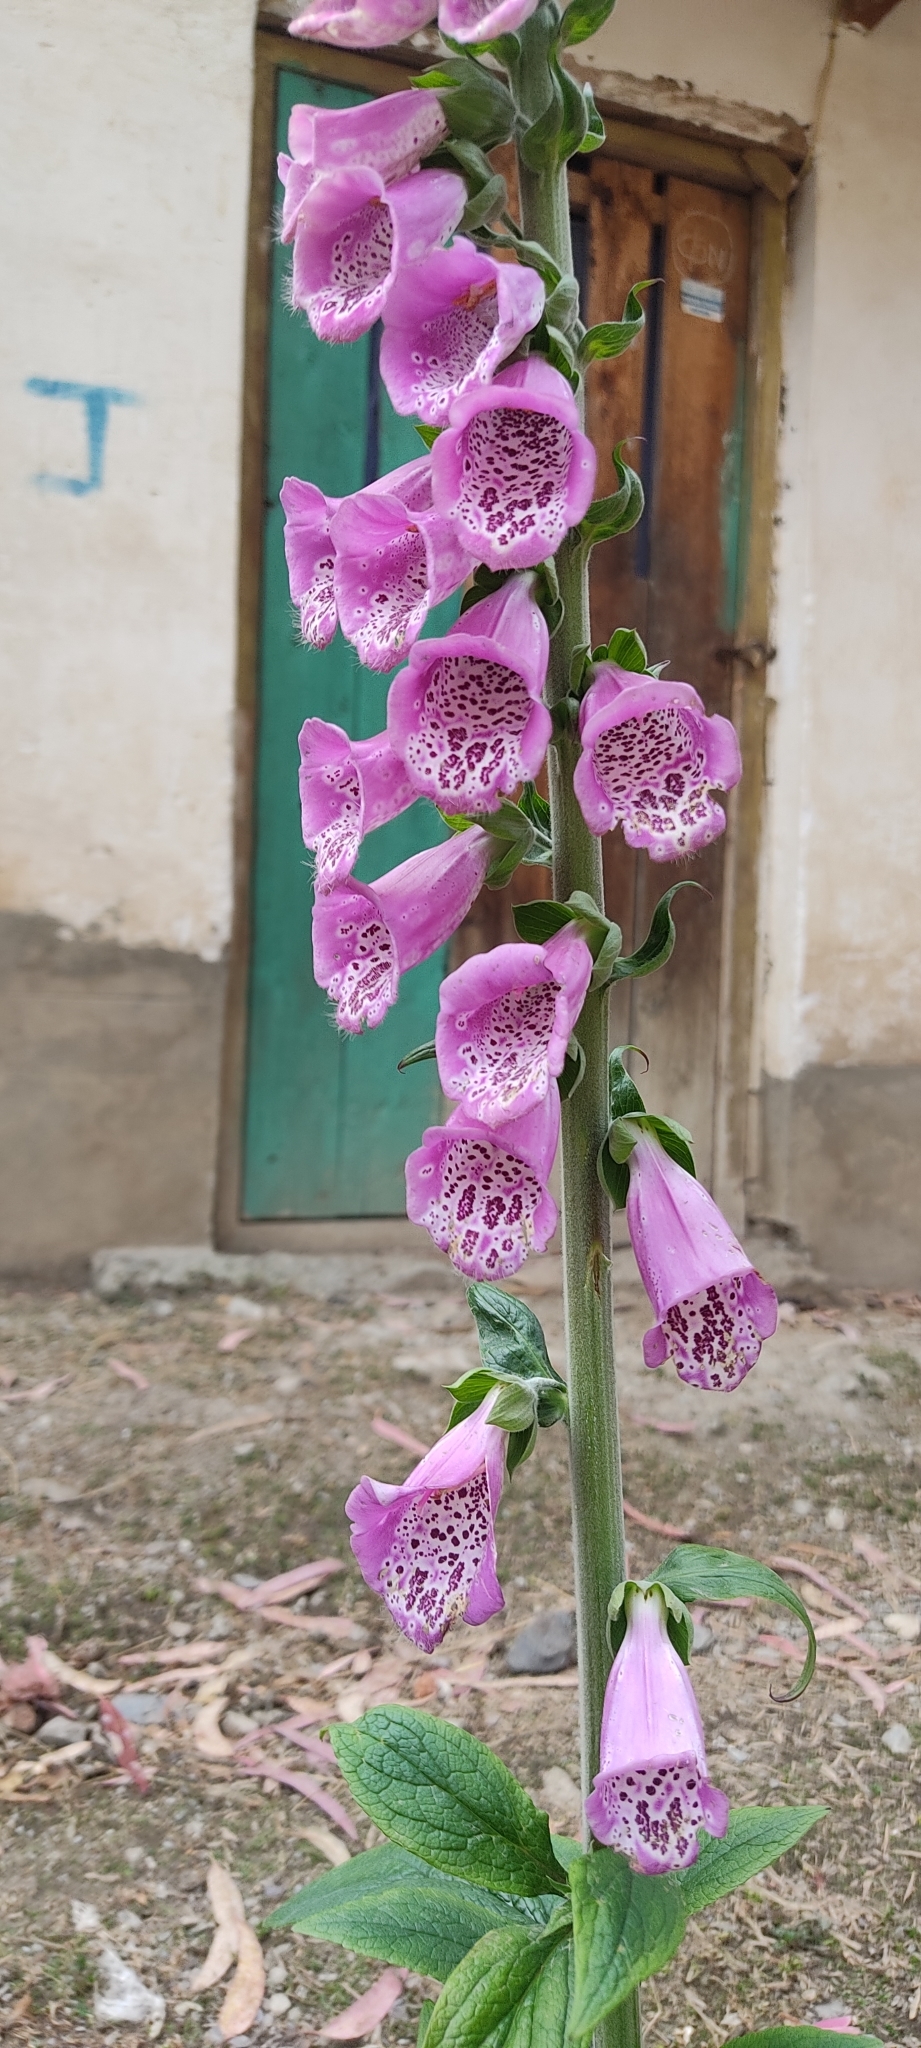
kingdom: Plantae
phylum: Tracheophyta
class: Magnoliopsida
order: Lamiales
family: Plantaginaceae
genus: Digitalis
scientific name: Digitalis purpurea
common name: Foxglove
